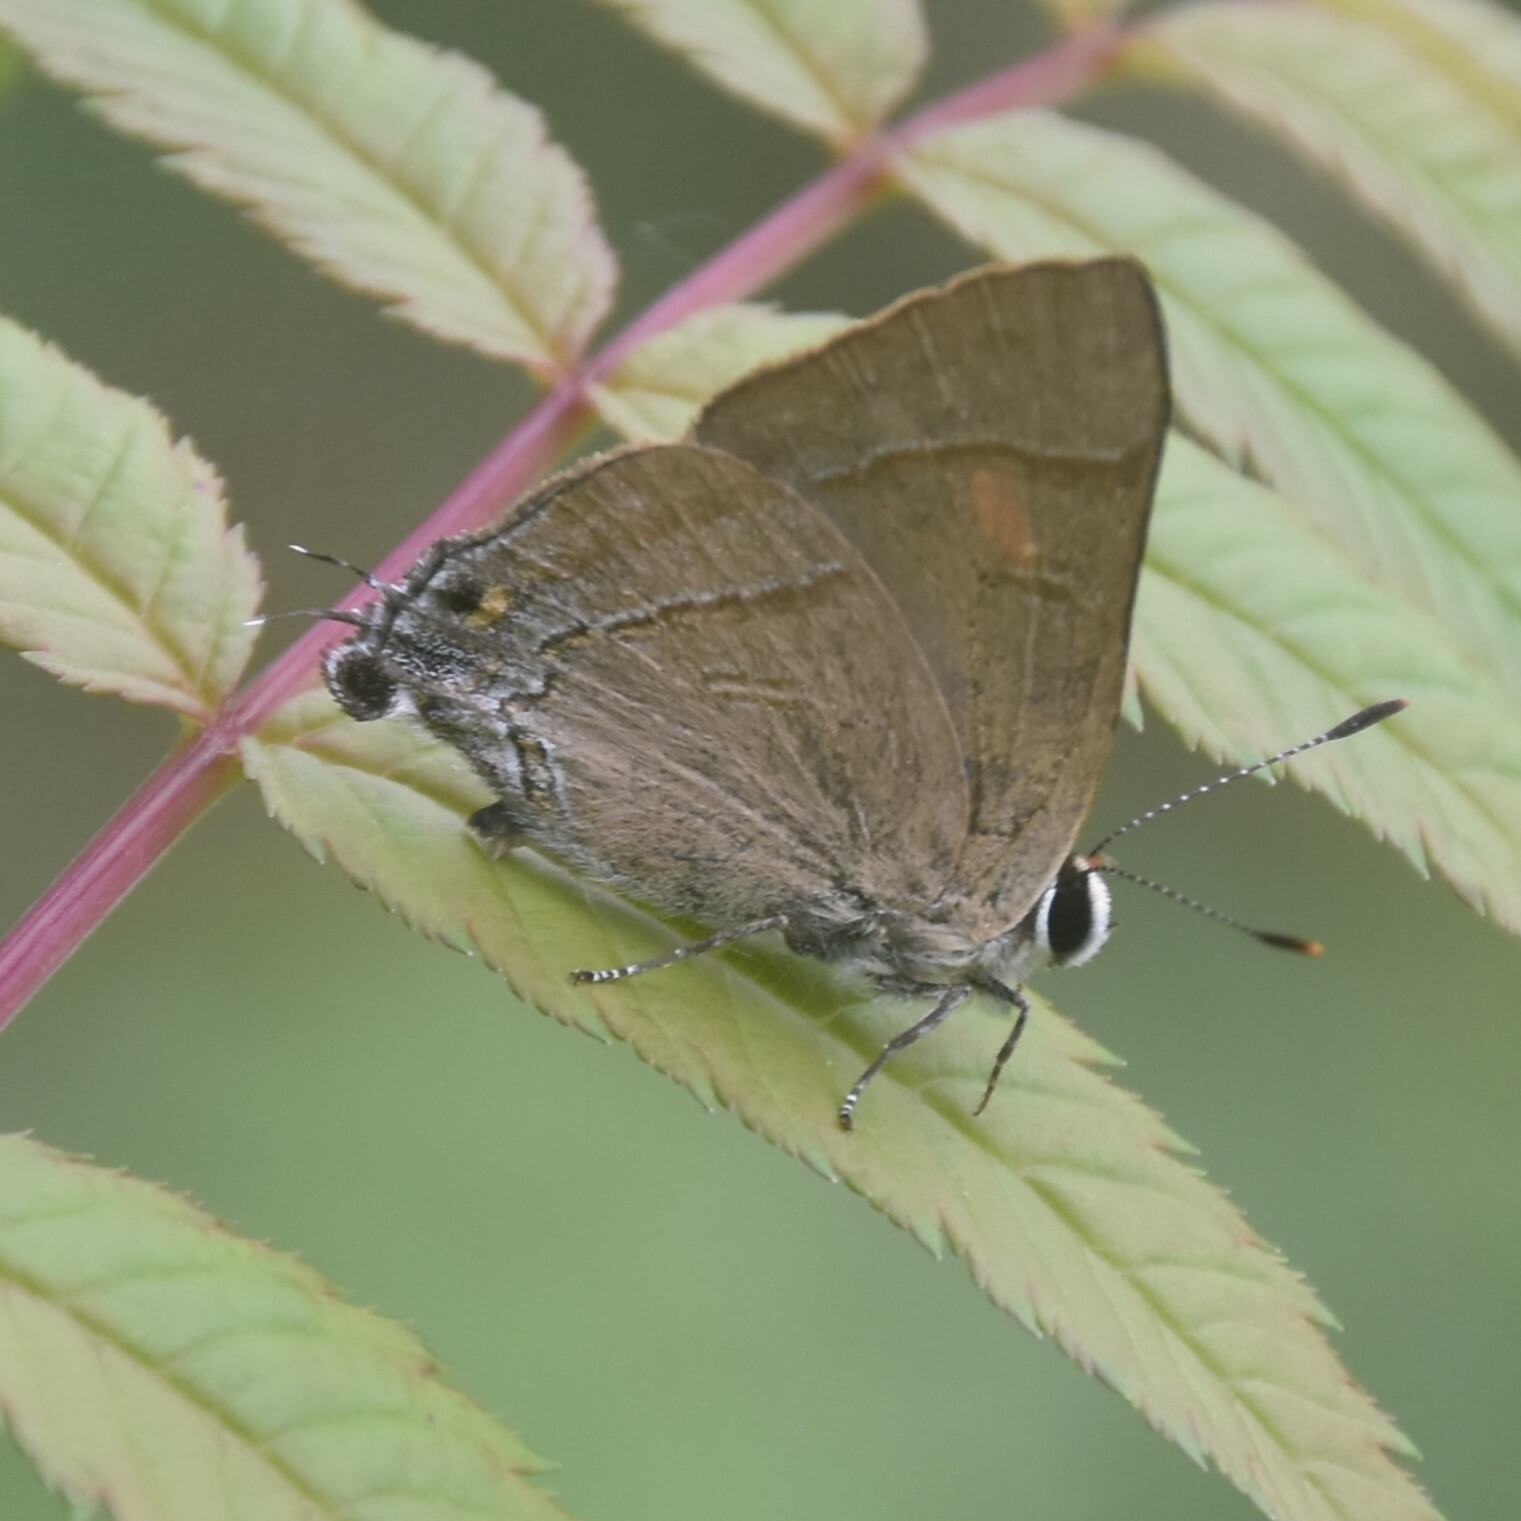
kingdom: Animalia
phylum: Arthropoda
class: Insecta
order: Lepidoptera
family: Lycaenidae
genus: Rapala
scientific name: Rapala nissa
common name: Common flash
